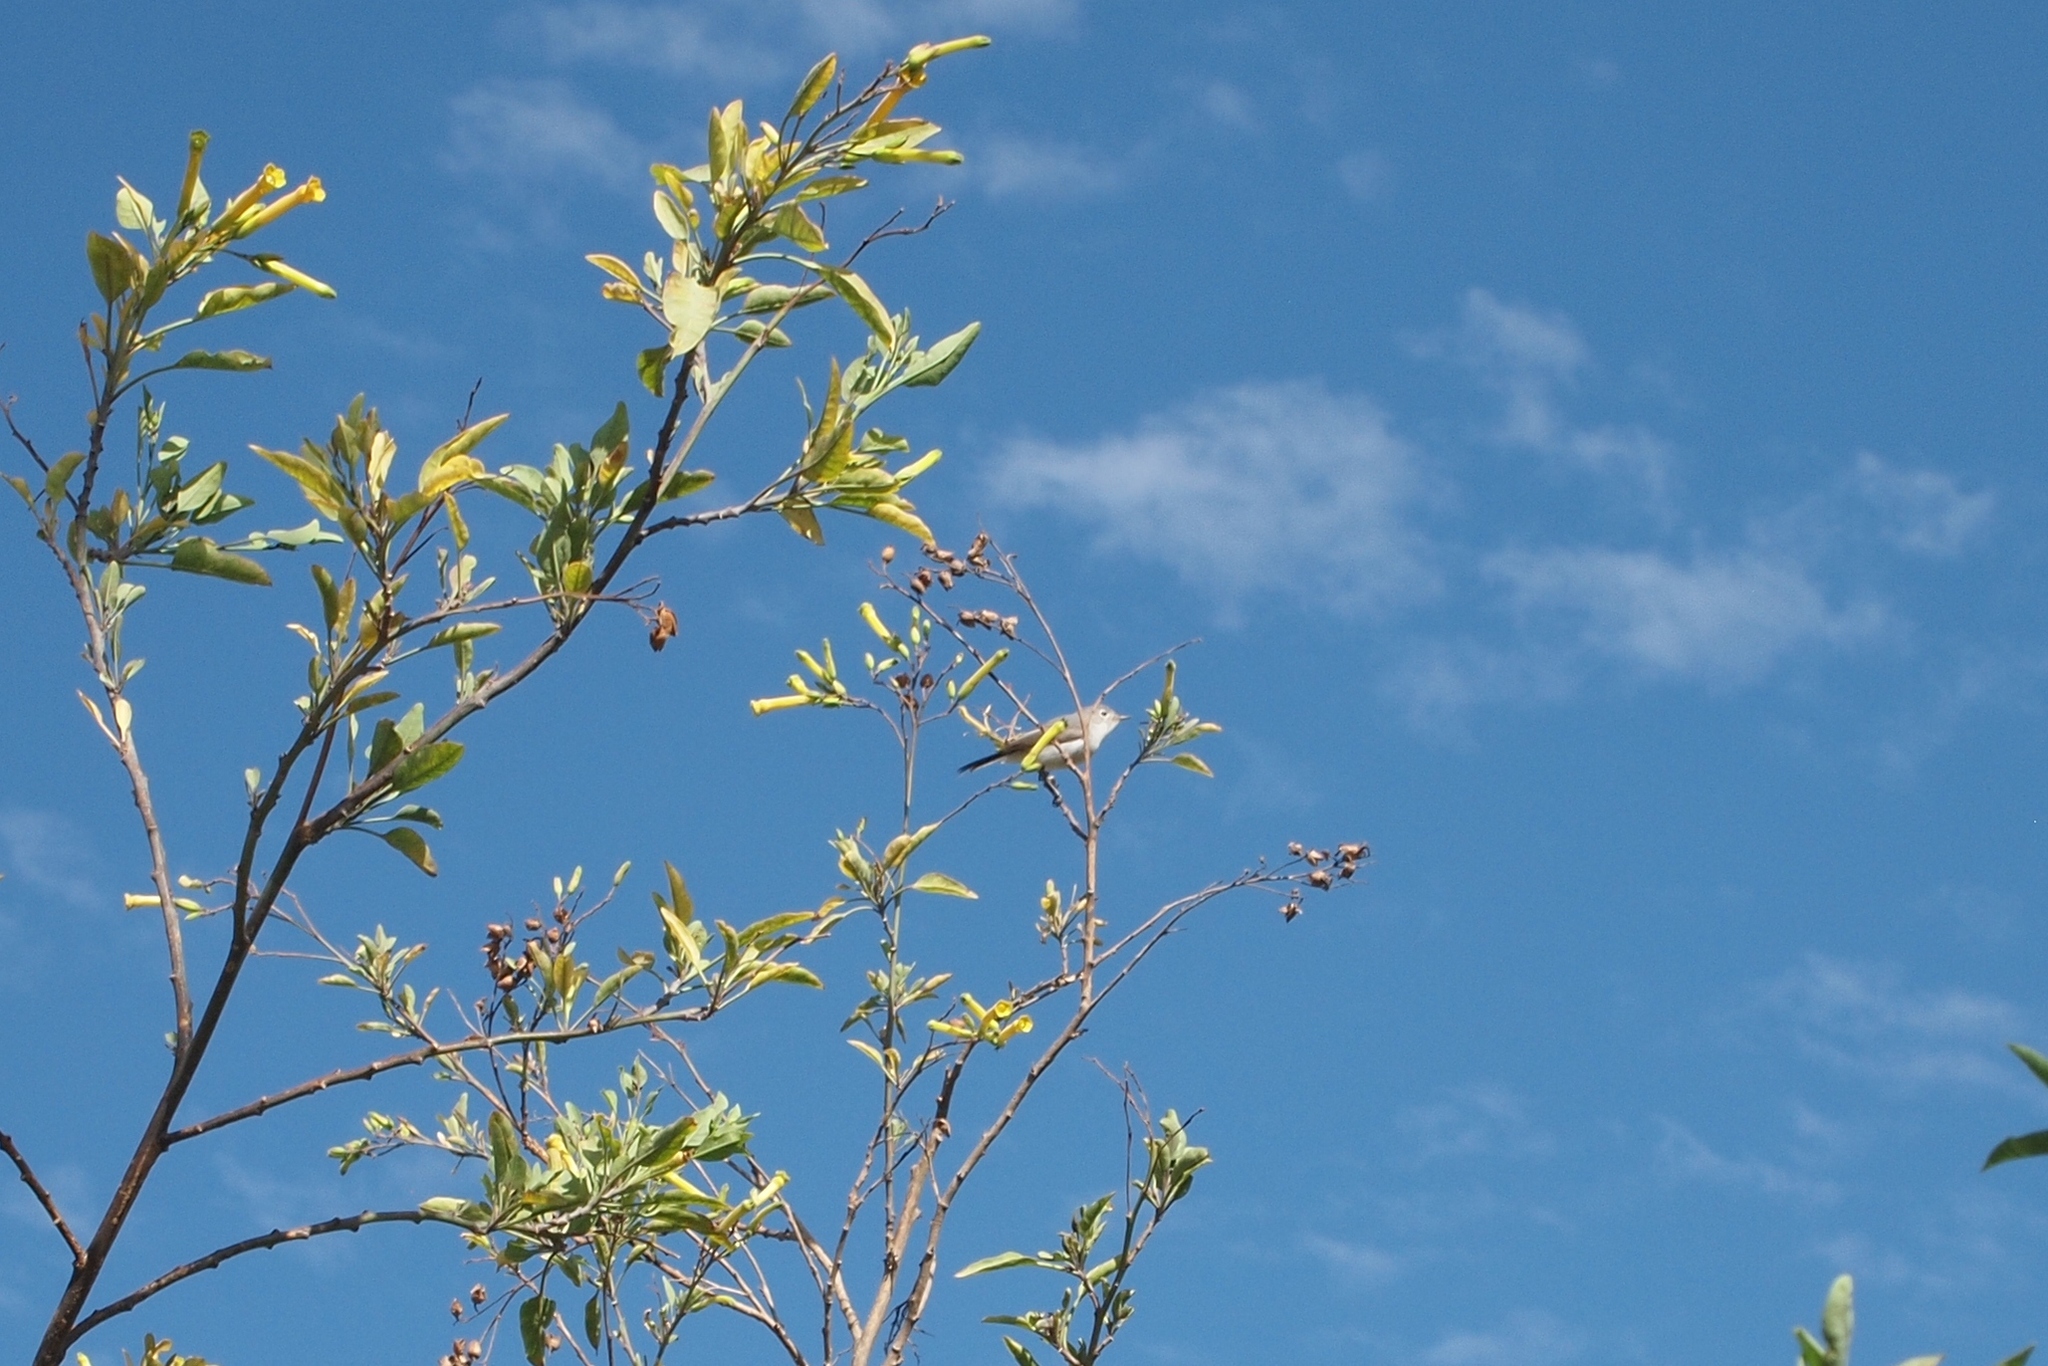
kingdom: Animalia
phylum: Chordata
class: Aves
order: Passeriformes
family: Polioptilidae
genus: Polioptila
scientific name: Polioptila caerulea
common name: Blue-gray gnatcatcher
